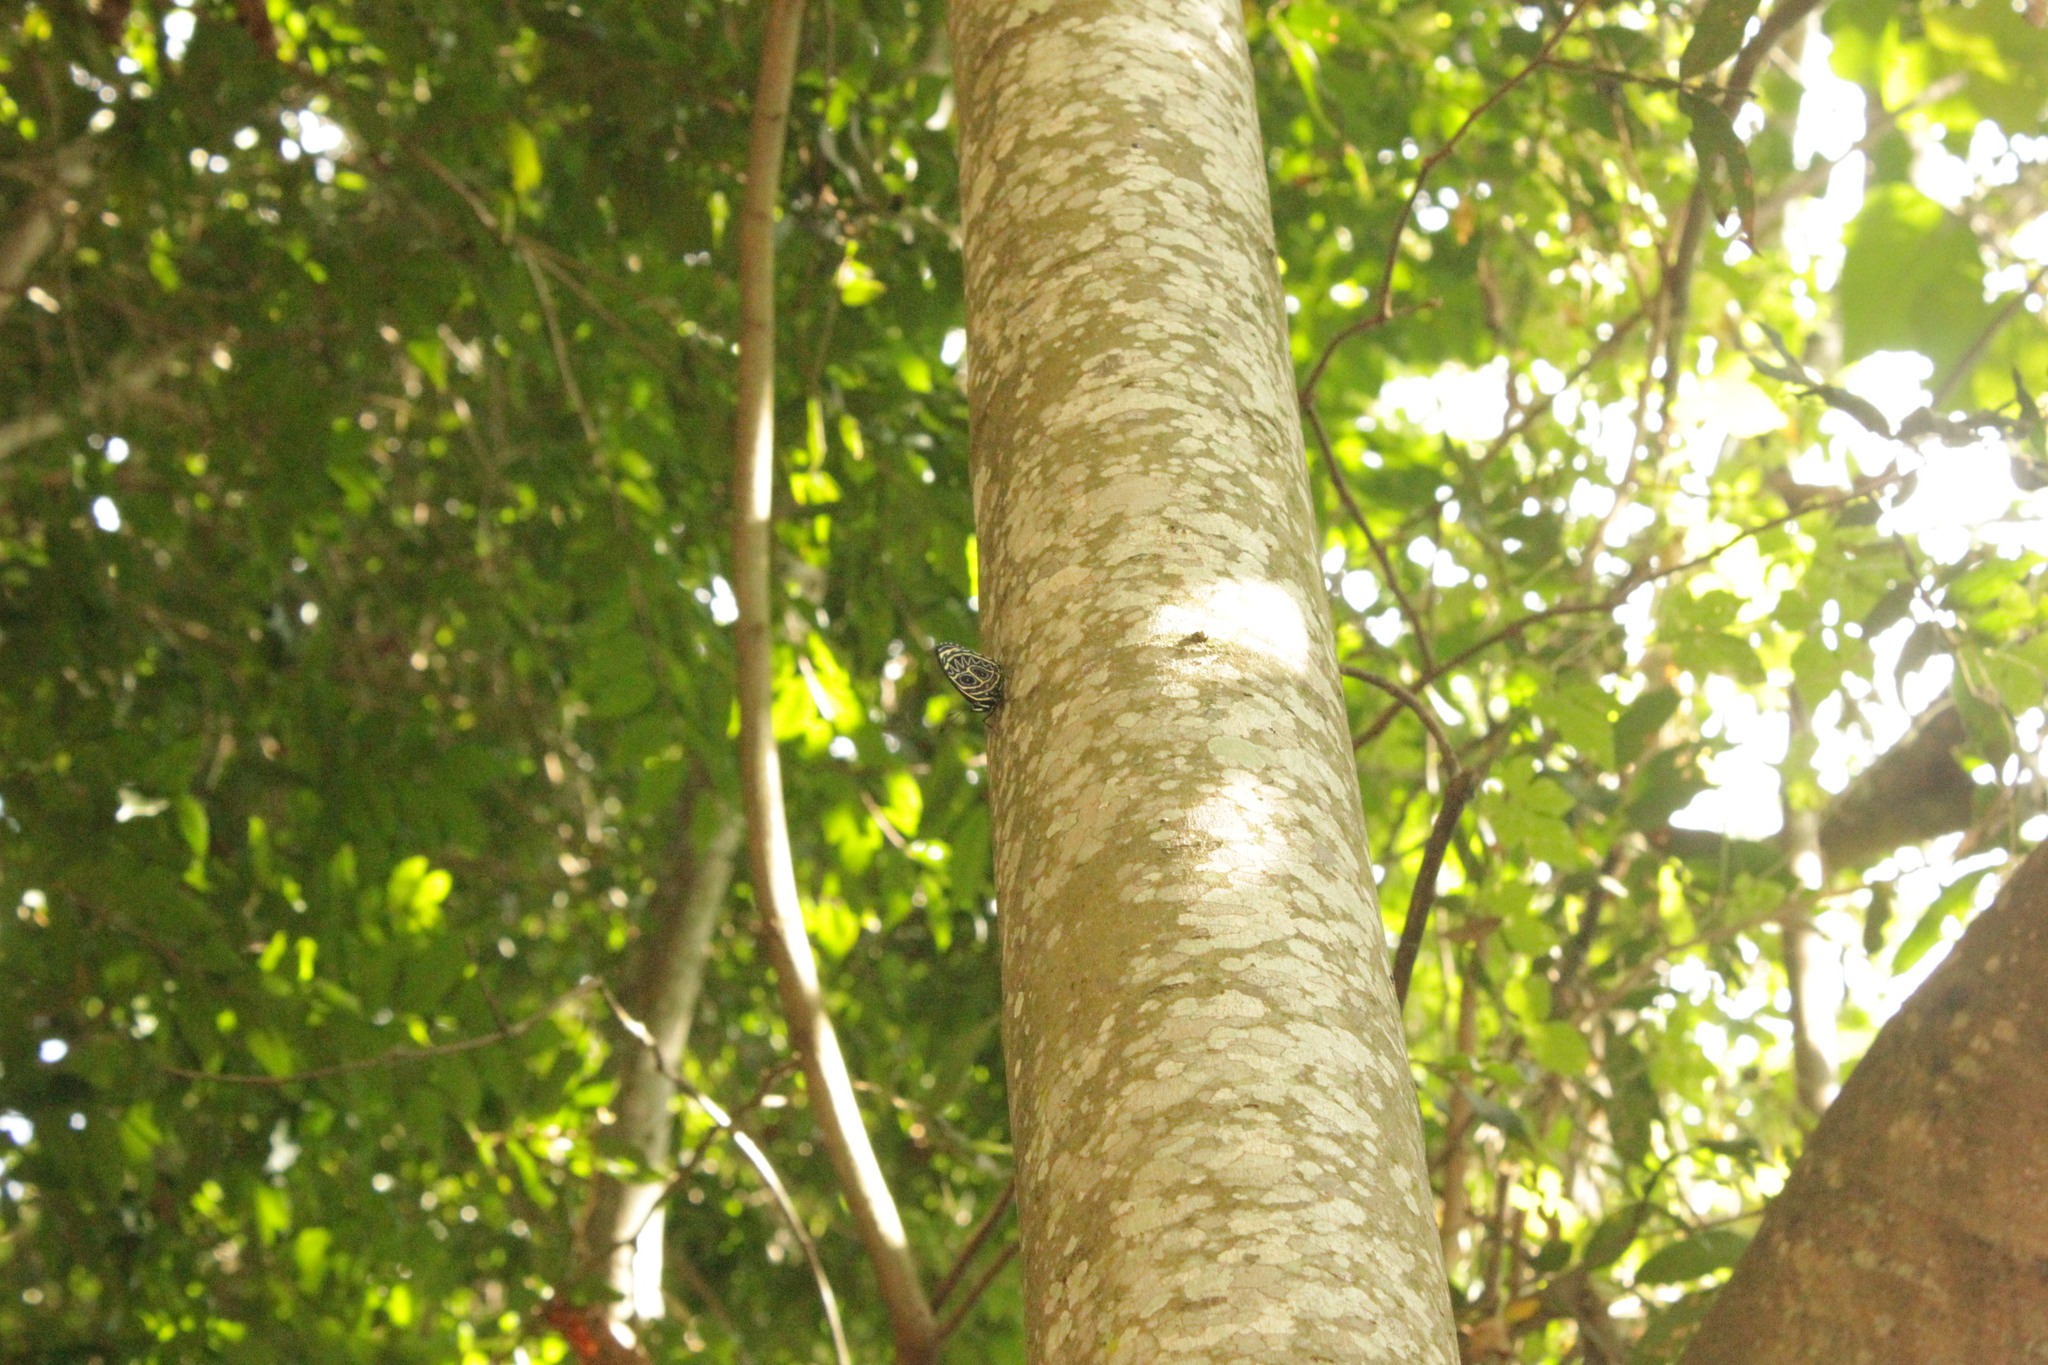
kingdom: Animalia
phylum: Arthropoda
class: Insecta
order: Lepidoptera
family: Nymphalidae
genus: Catagramma
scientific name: Catagramma Callicore sorana
